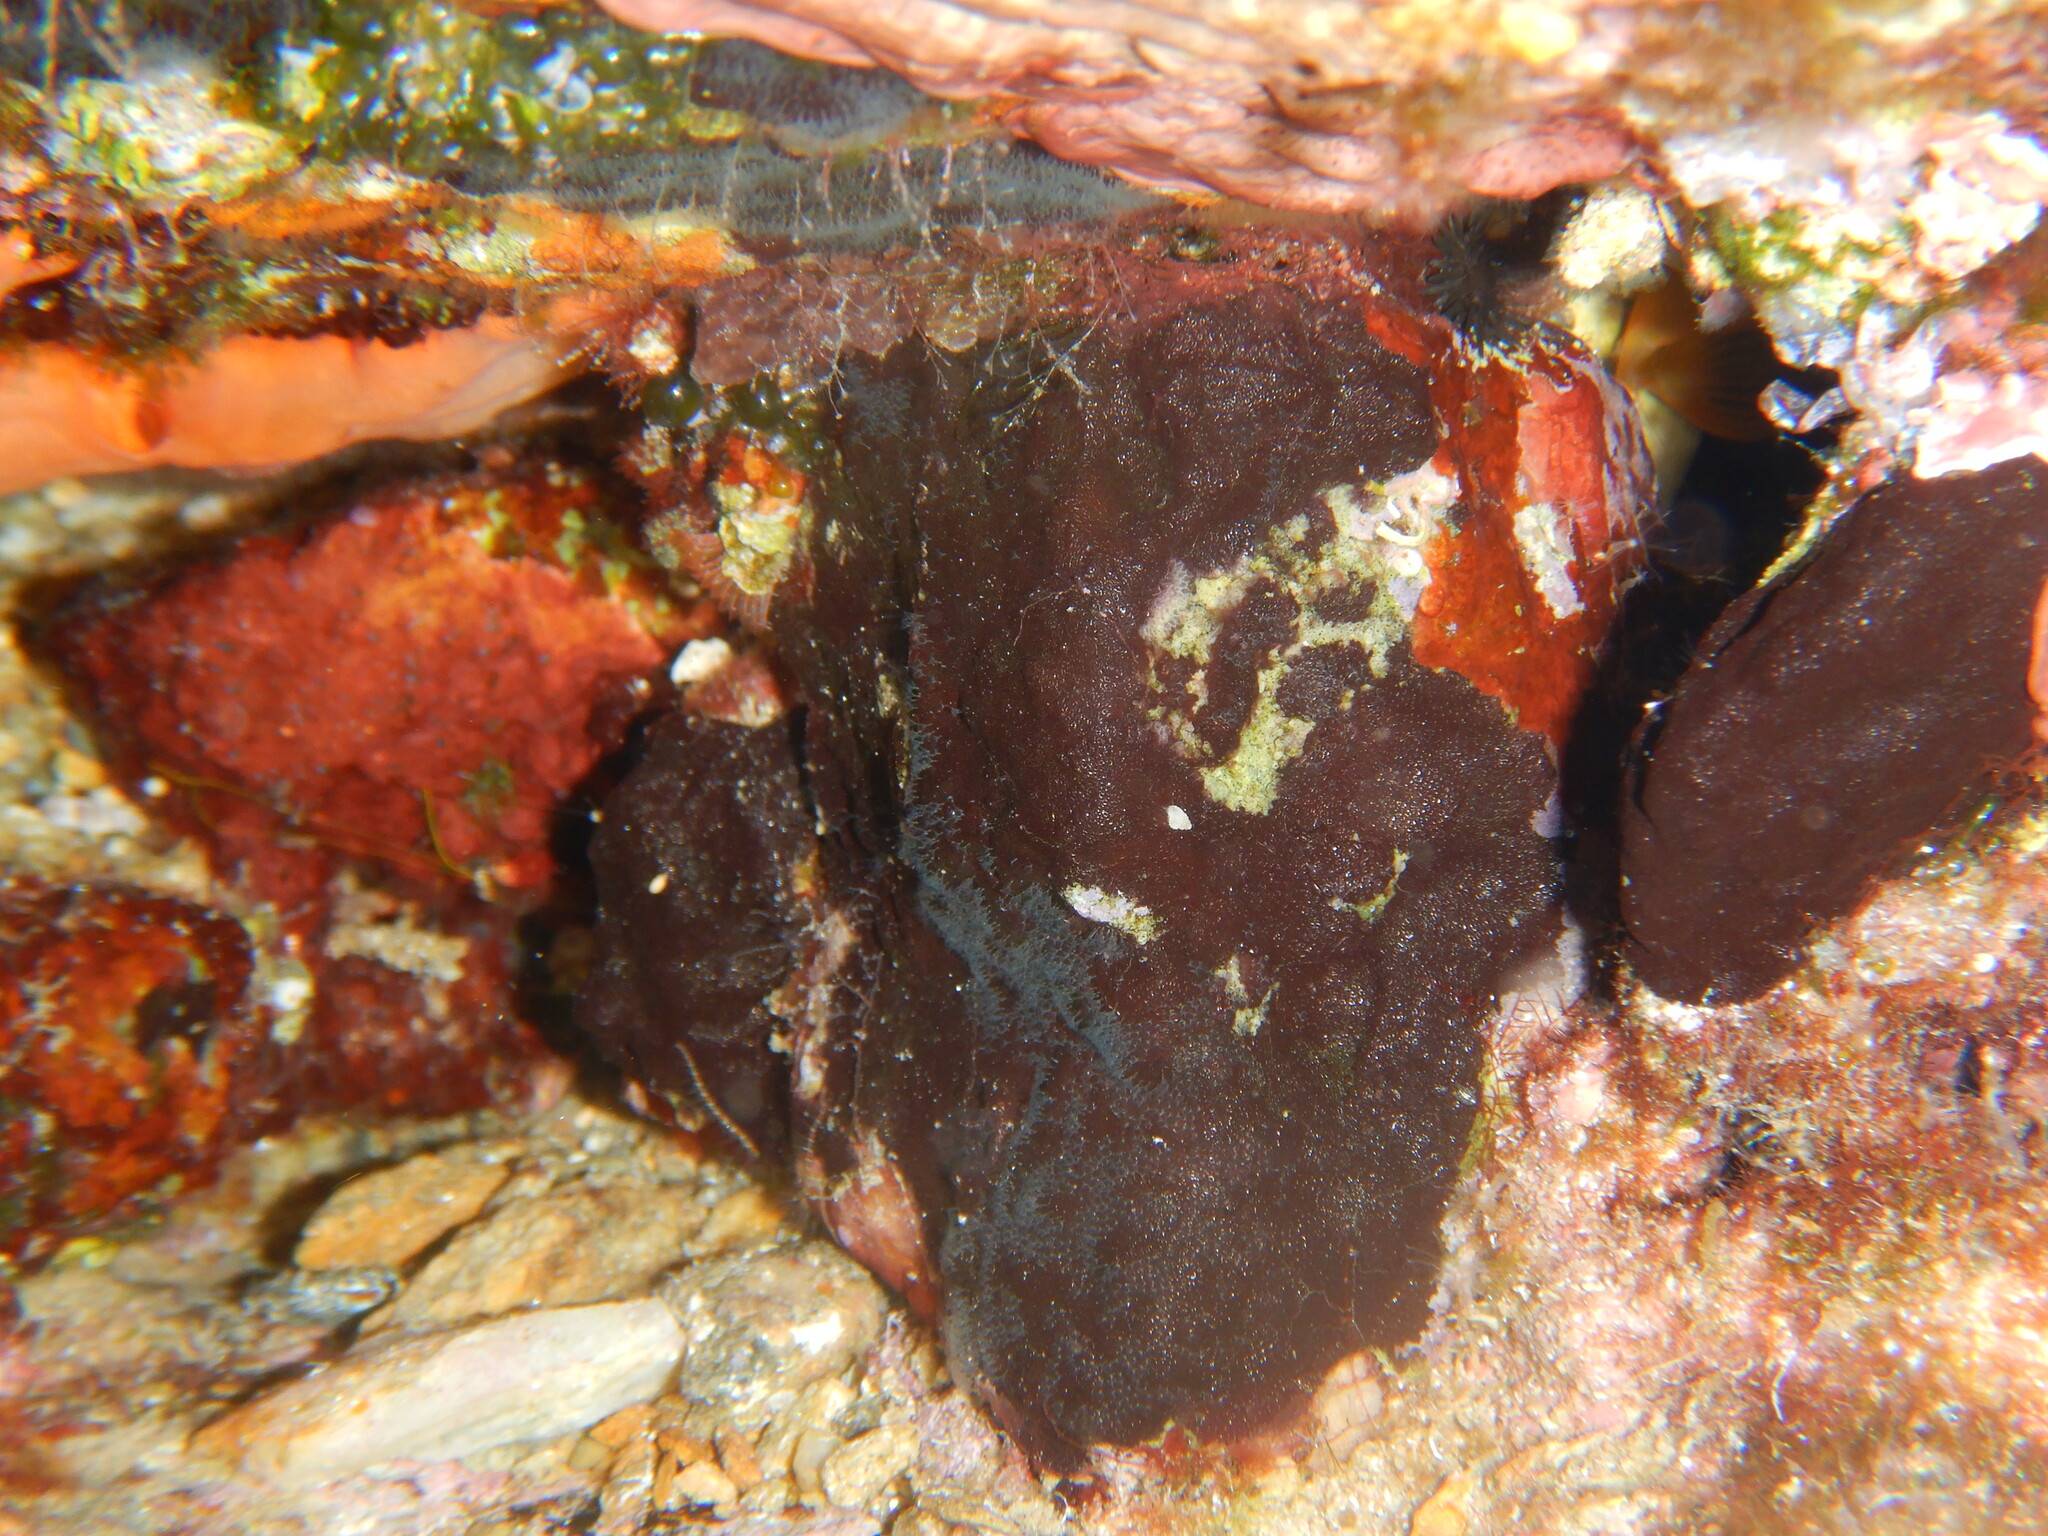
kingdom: Animalia
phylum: Bryozoa
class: Gymnolaemata
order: Cheilostomatida
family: Adeonidae
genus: Reptadeonella
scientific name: Reptadeonella violacea
